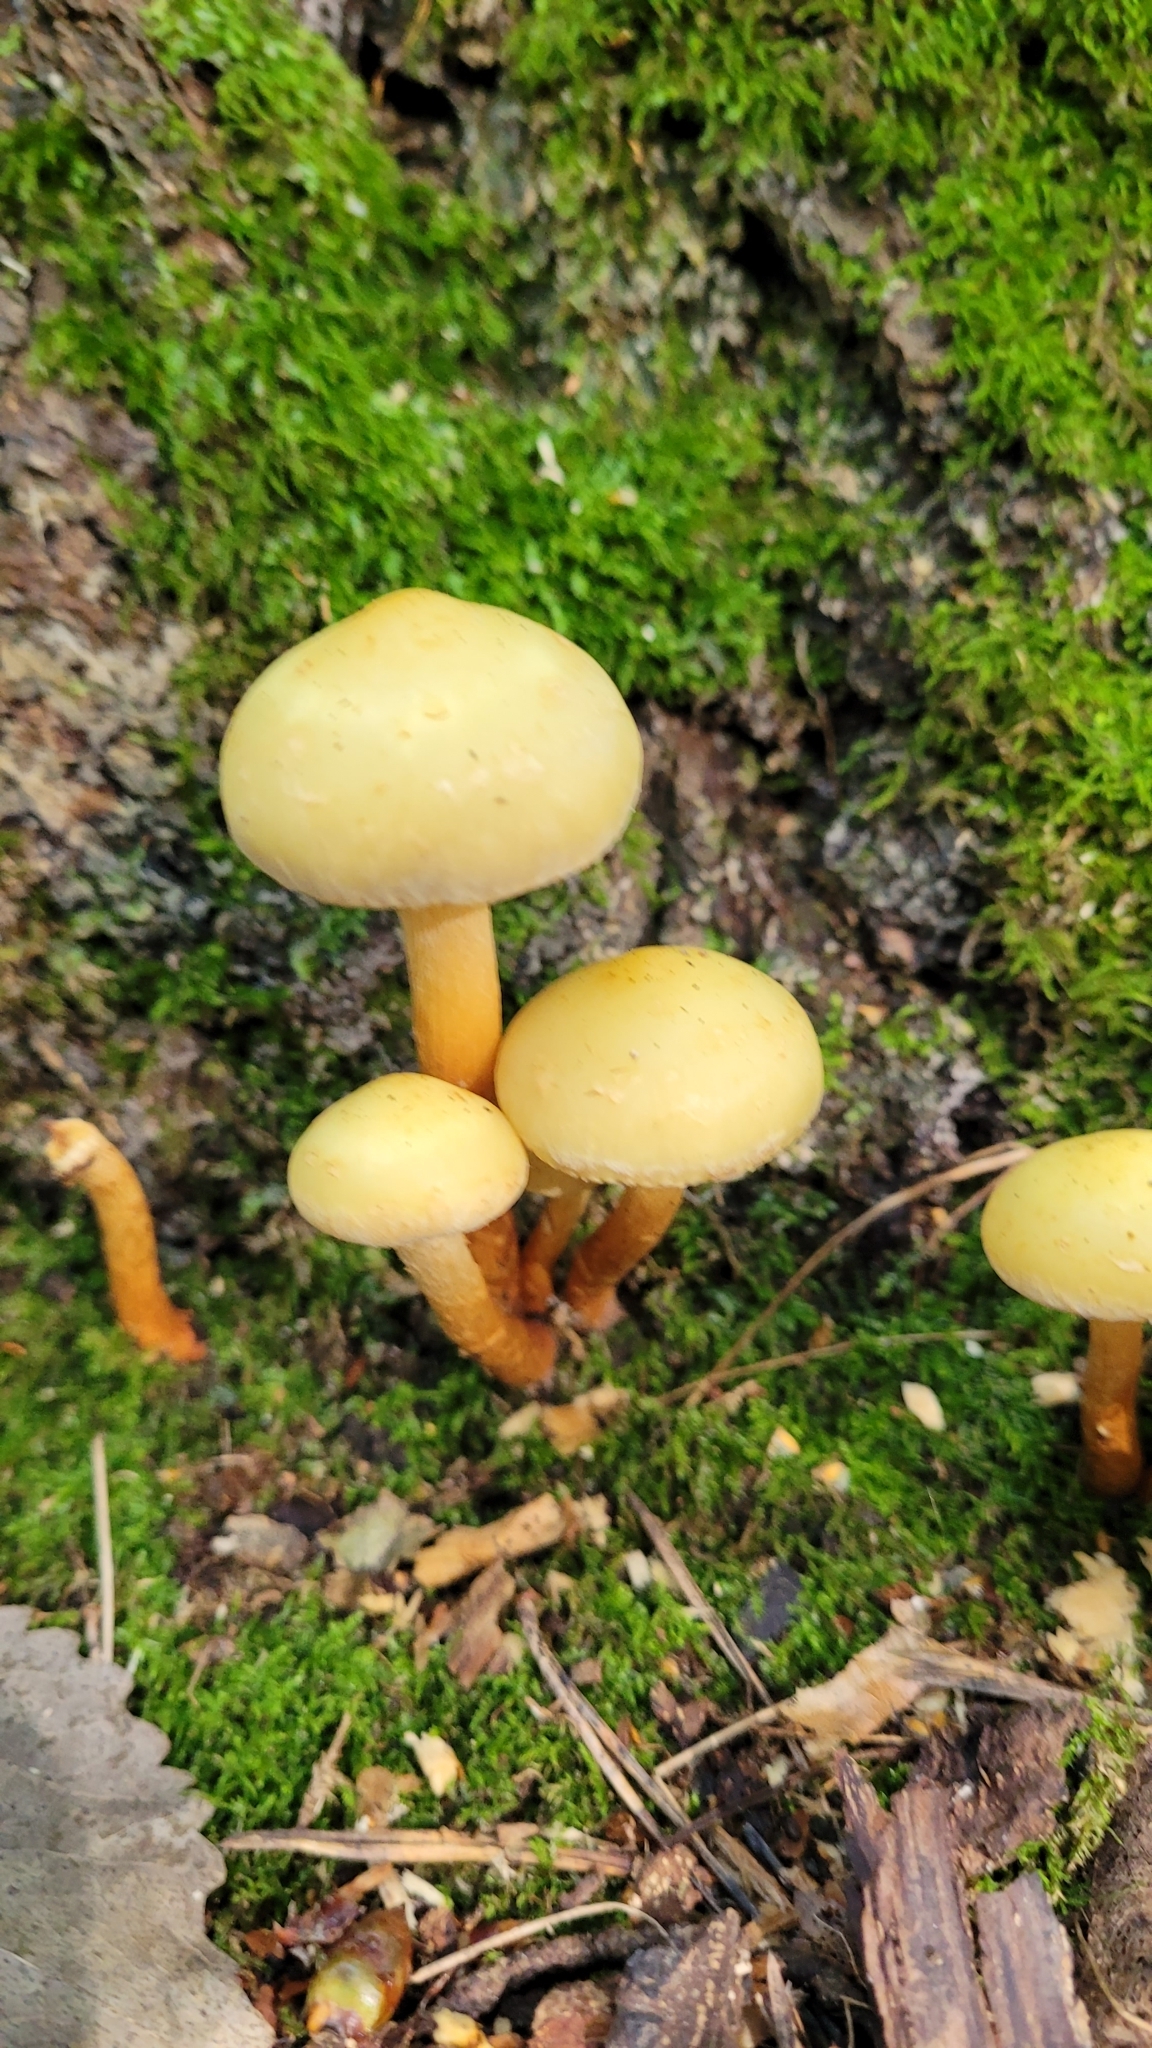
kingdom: Fungi
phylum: Basidiomycota
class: Agaricomycetes
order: Agaricales
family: Hymenogastraceae
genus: Flammula
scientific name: Flammula alnicola
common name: Alder scalycap
